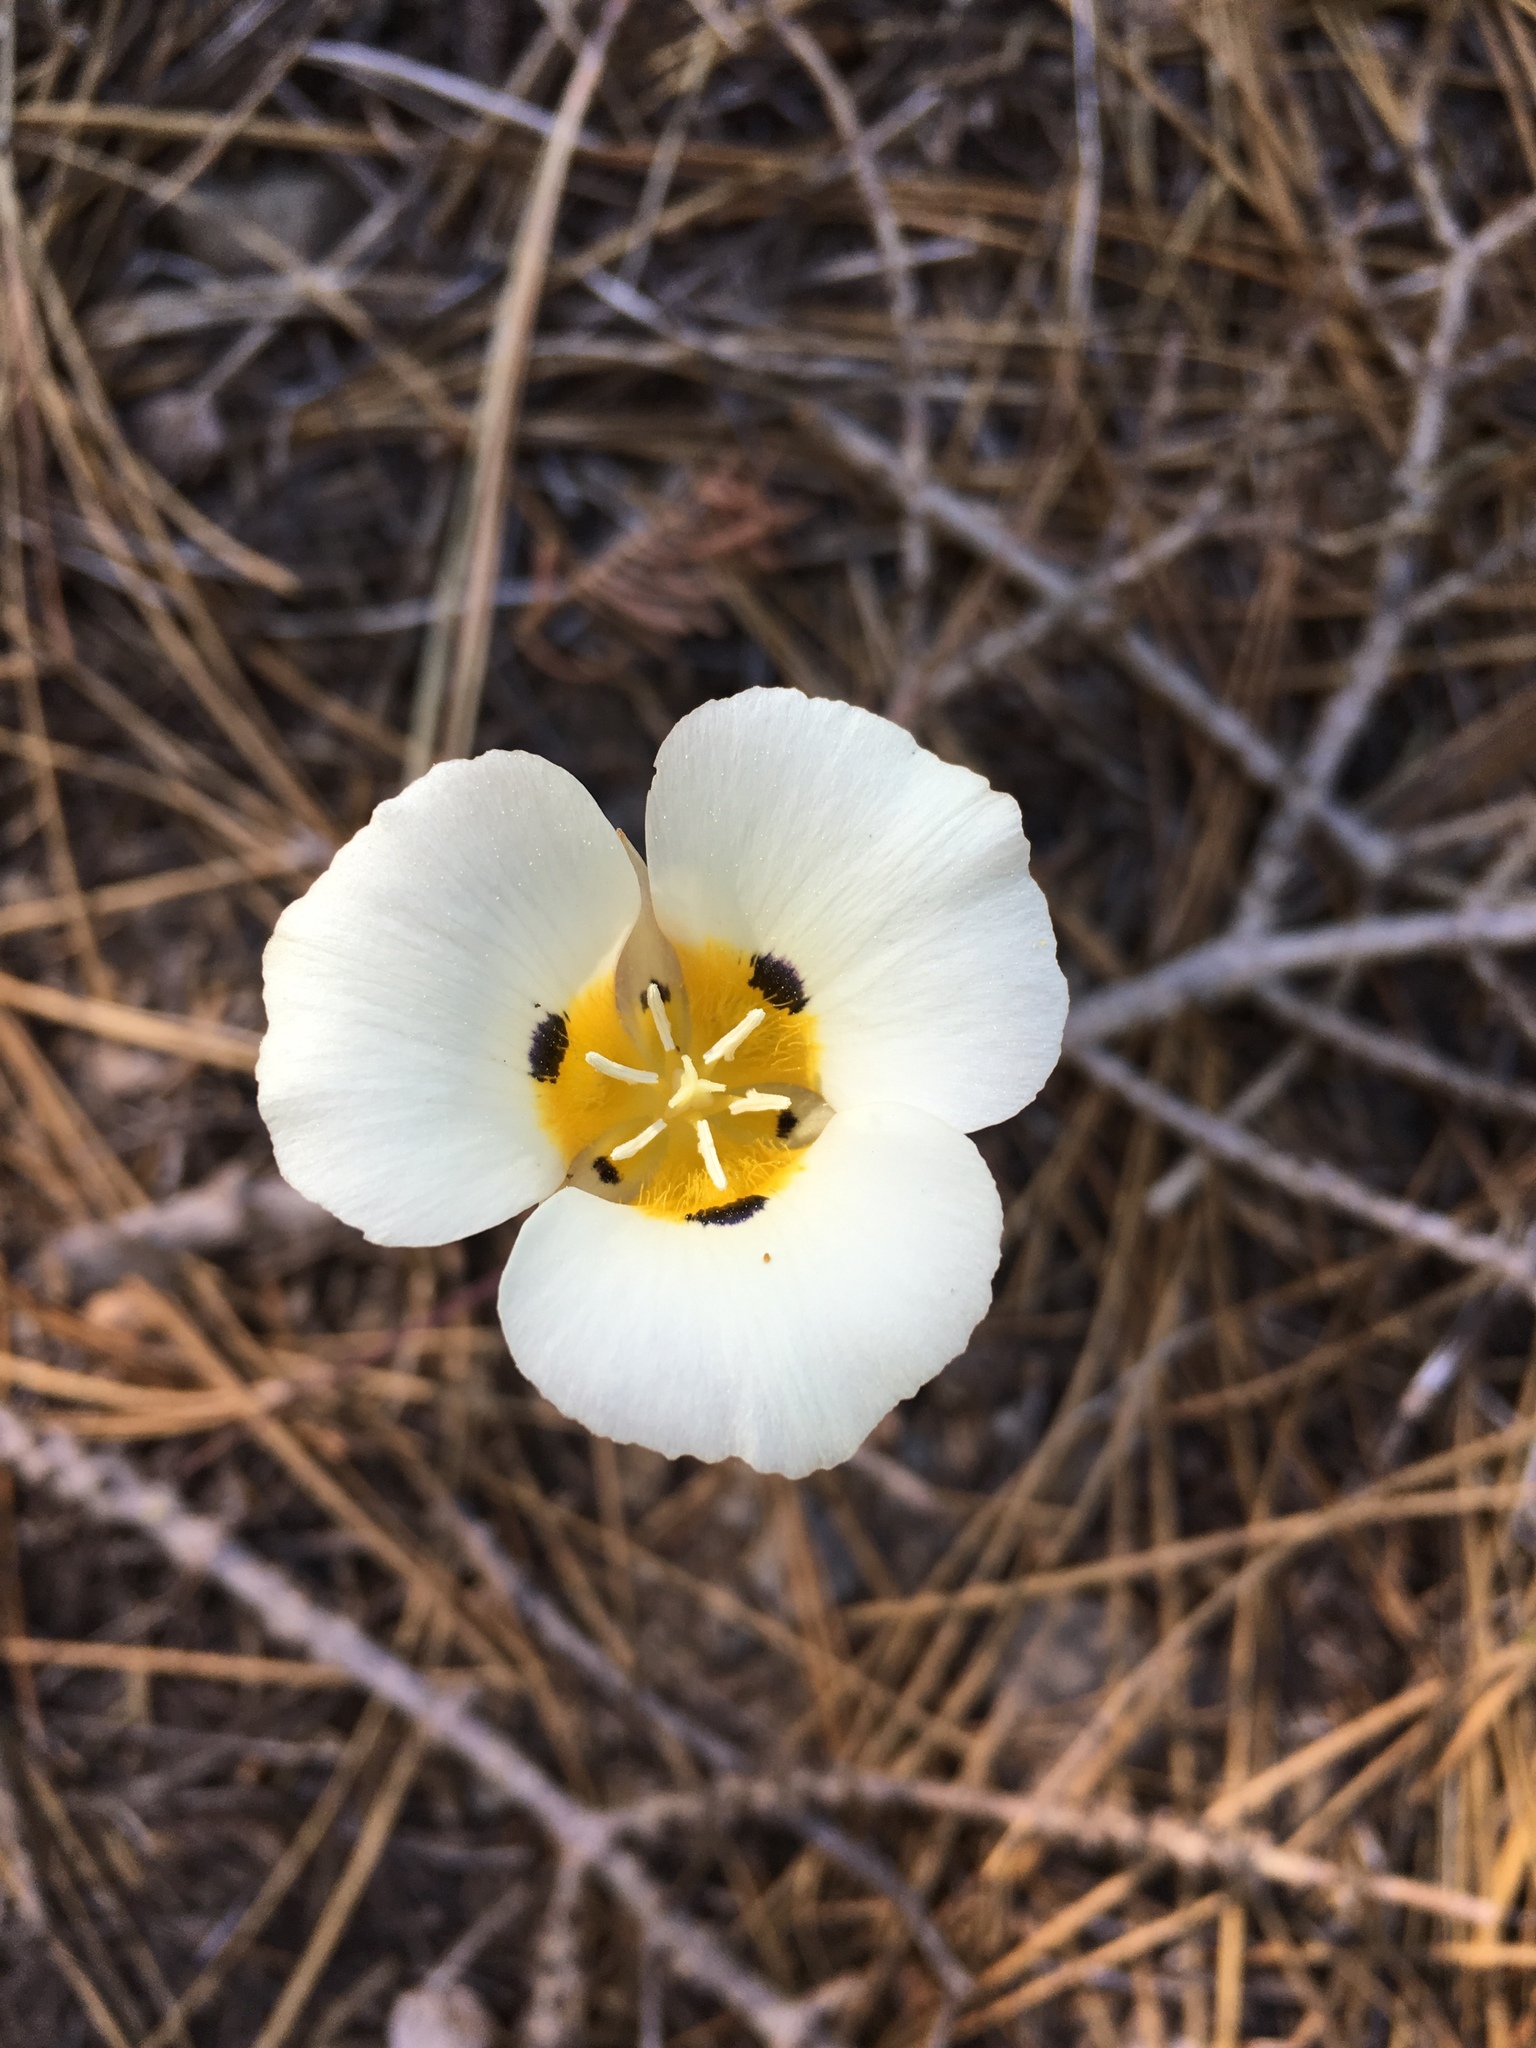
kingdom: Plantae
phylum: Tracheophyta
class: Liliopsida
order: Liliales
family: Liliaceae
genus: Calochortus
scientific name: Calochortus leichtlinii
